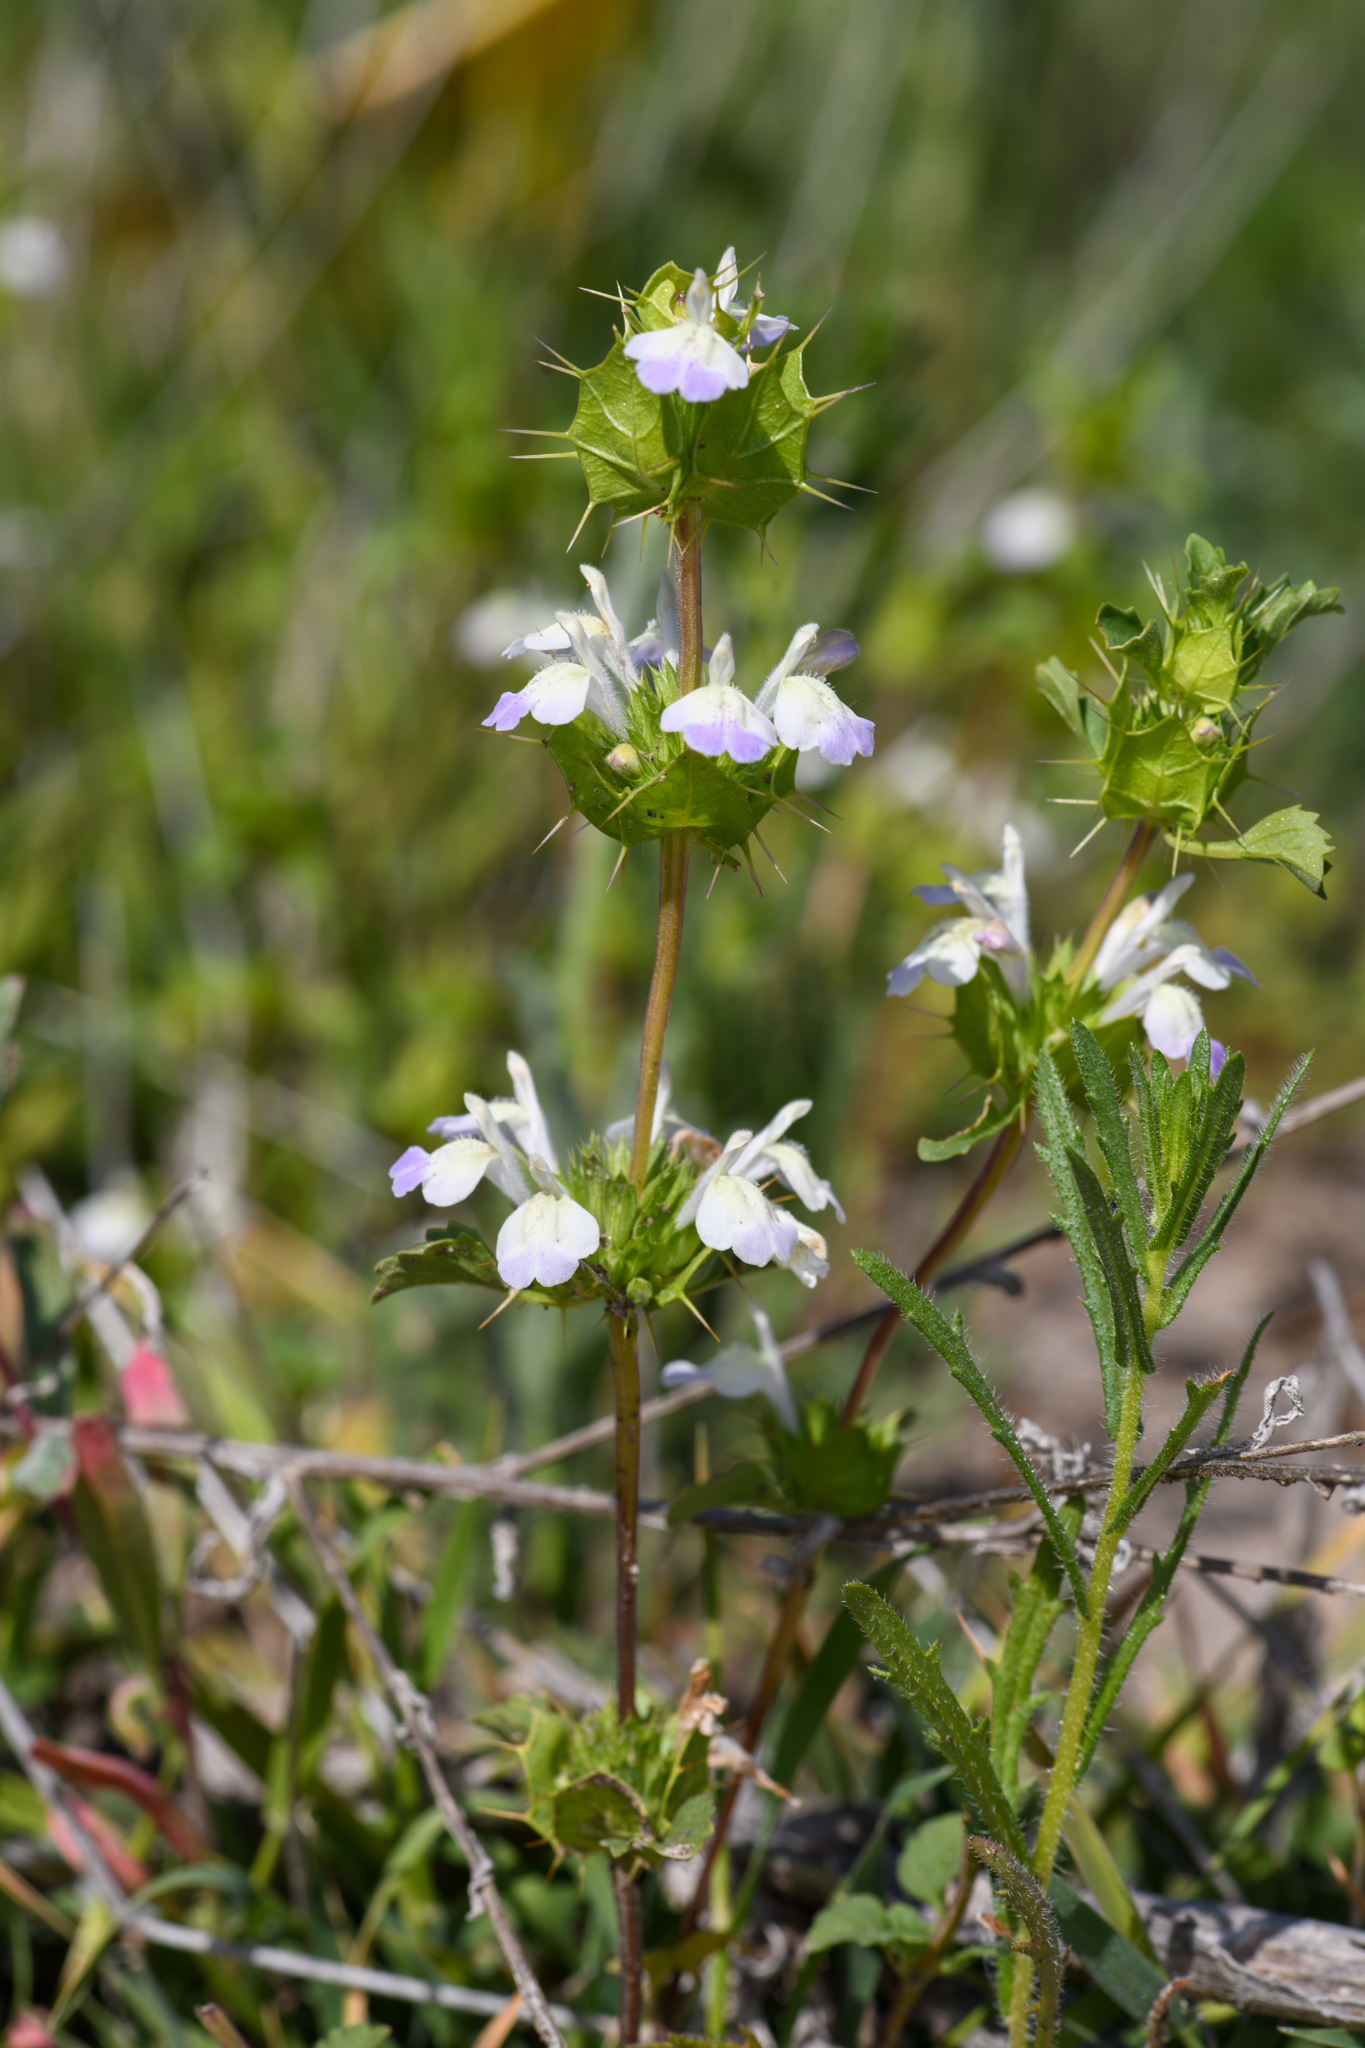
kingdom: Plantae
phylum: Tracheophyta
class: Magnoliopsida
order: Lamiales
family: Lamiaceae
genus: Acanthomintha
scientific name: Acanthomintha ilicifolia
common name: San diego thorn-mint
